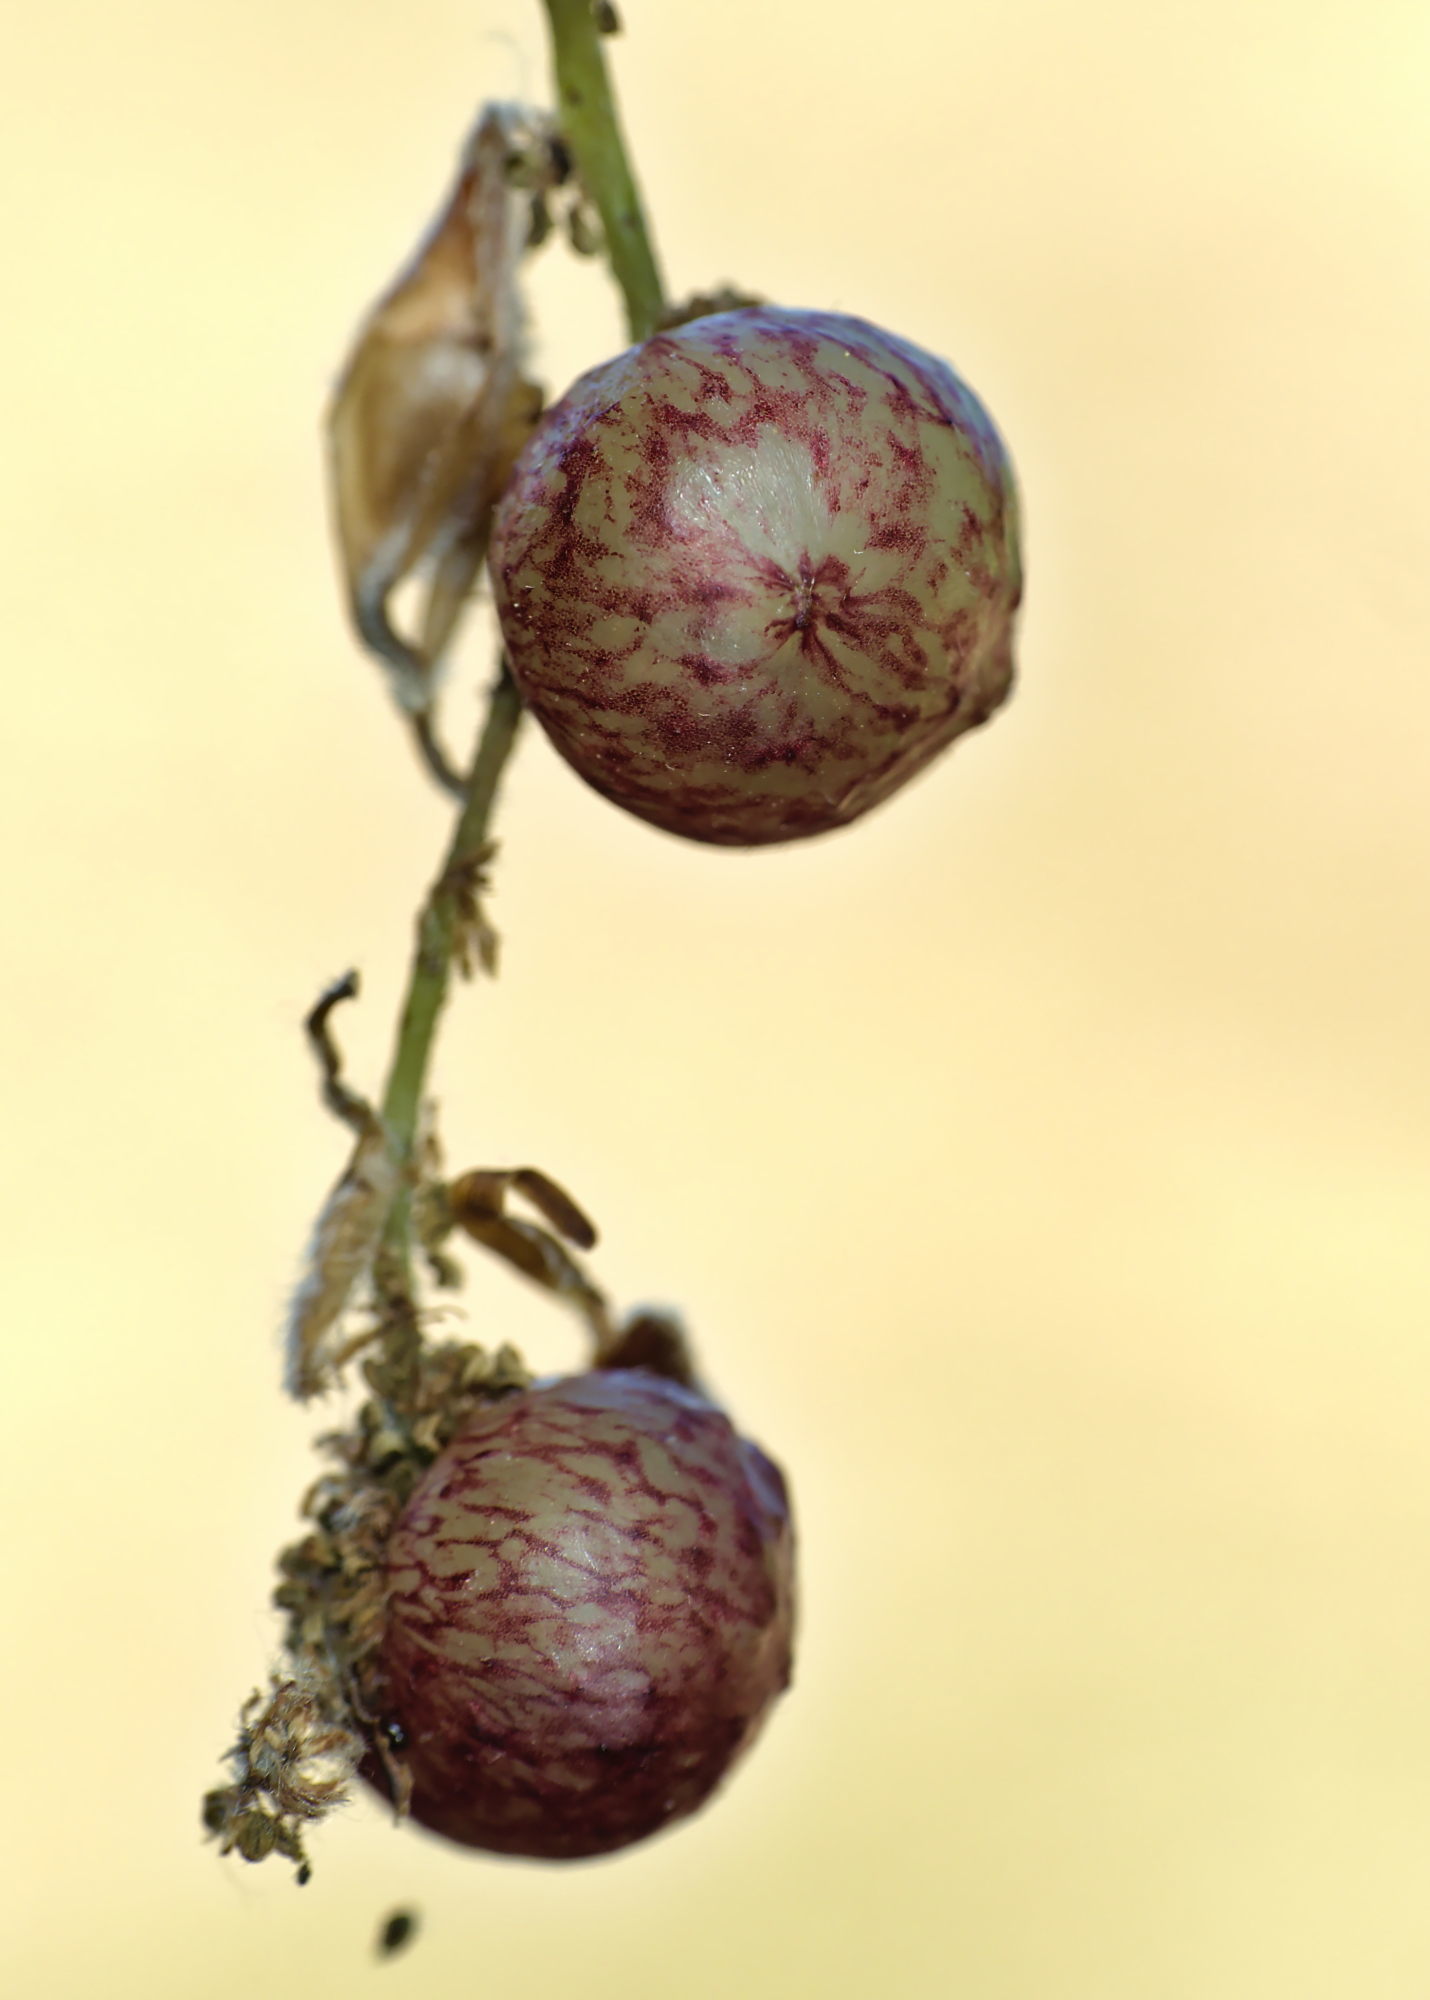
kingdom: Animalia
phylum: Arthropoda
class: Insecta
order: Hymenoptera
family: Cynipidae
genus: Neuroterus
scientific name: Neuroterus quercusbaccarum
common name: Common spangle gall
